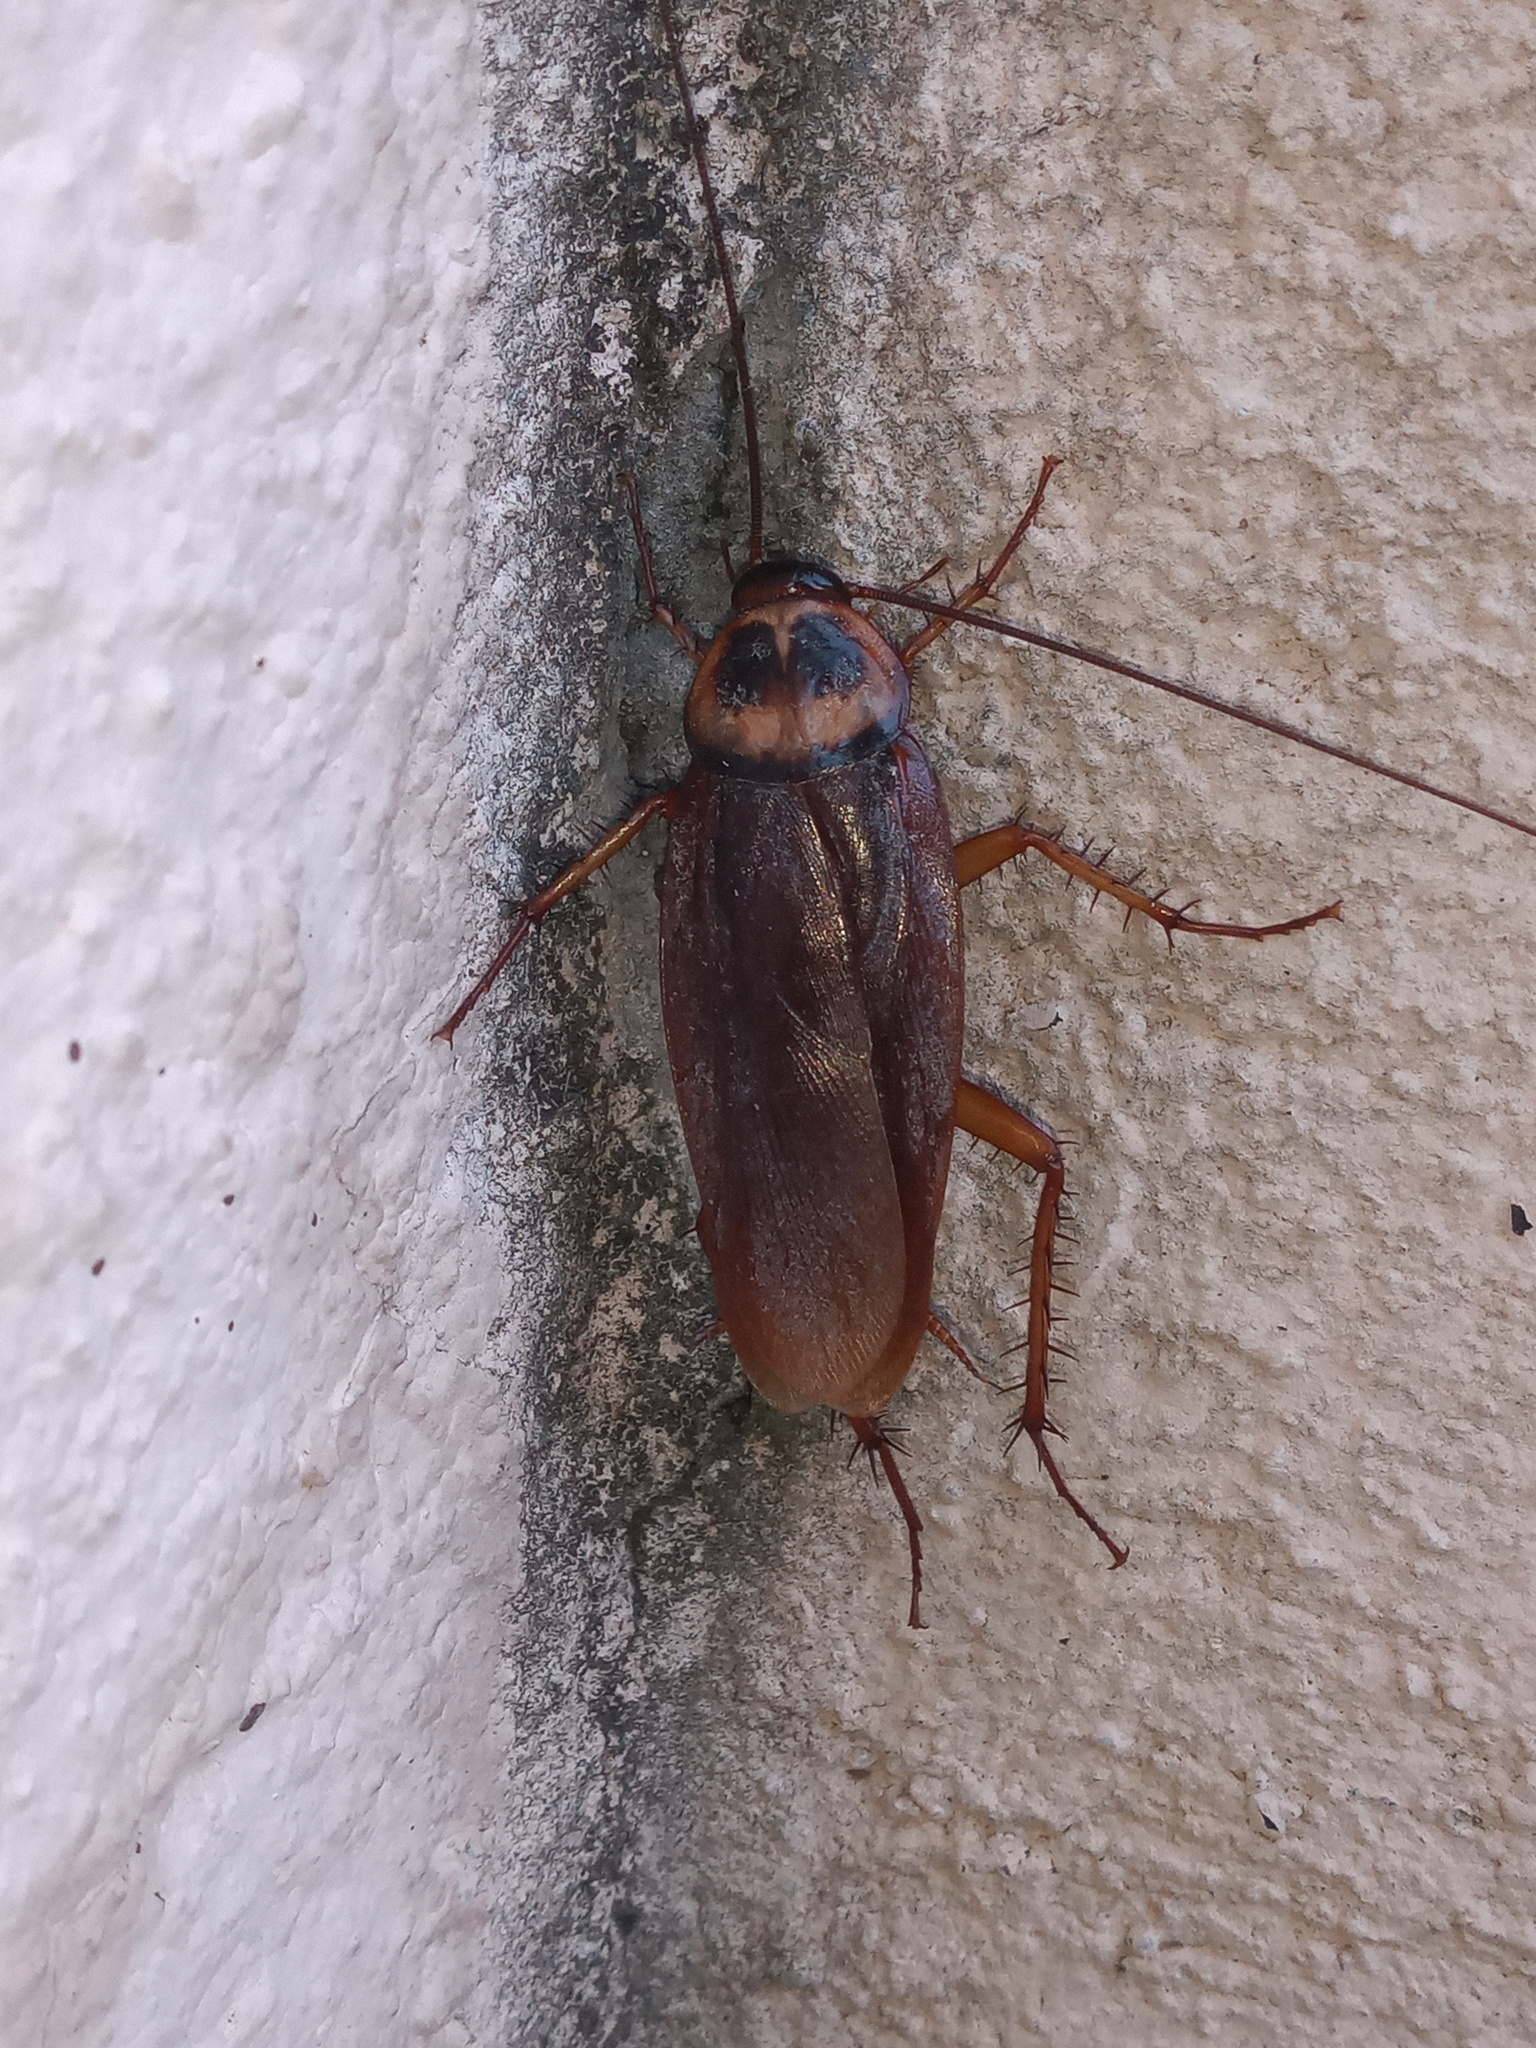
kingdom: Animalia
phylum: Arthropoda
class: Insecta
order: Blattodea
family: Blattidae
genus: Periplaneta
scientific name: Periplaneta americana
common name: American cockroach
